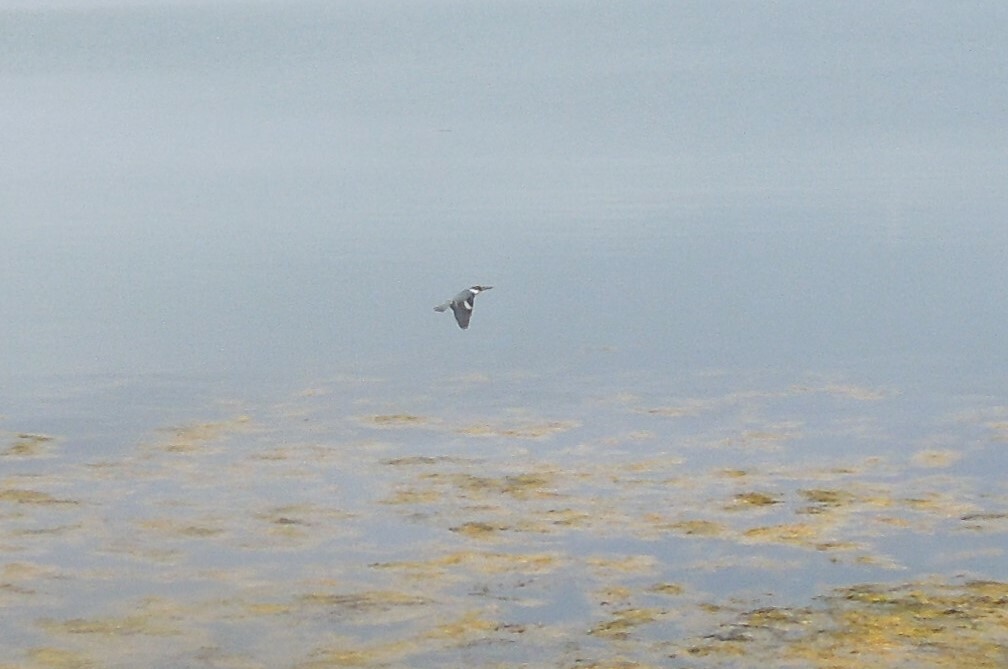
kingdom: Animalia
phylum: Chordata
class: Aves
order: Coraciiformes
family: Alcedinidae
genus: Megaceryle
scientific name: Megaceryle alcyon
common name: Belted kingfisher
